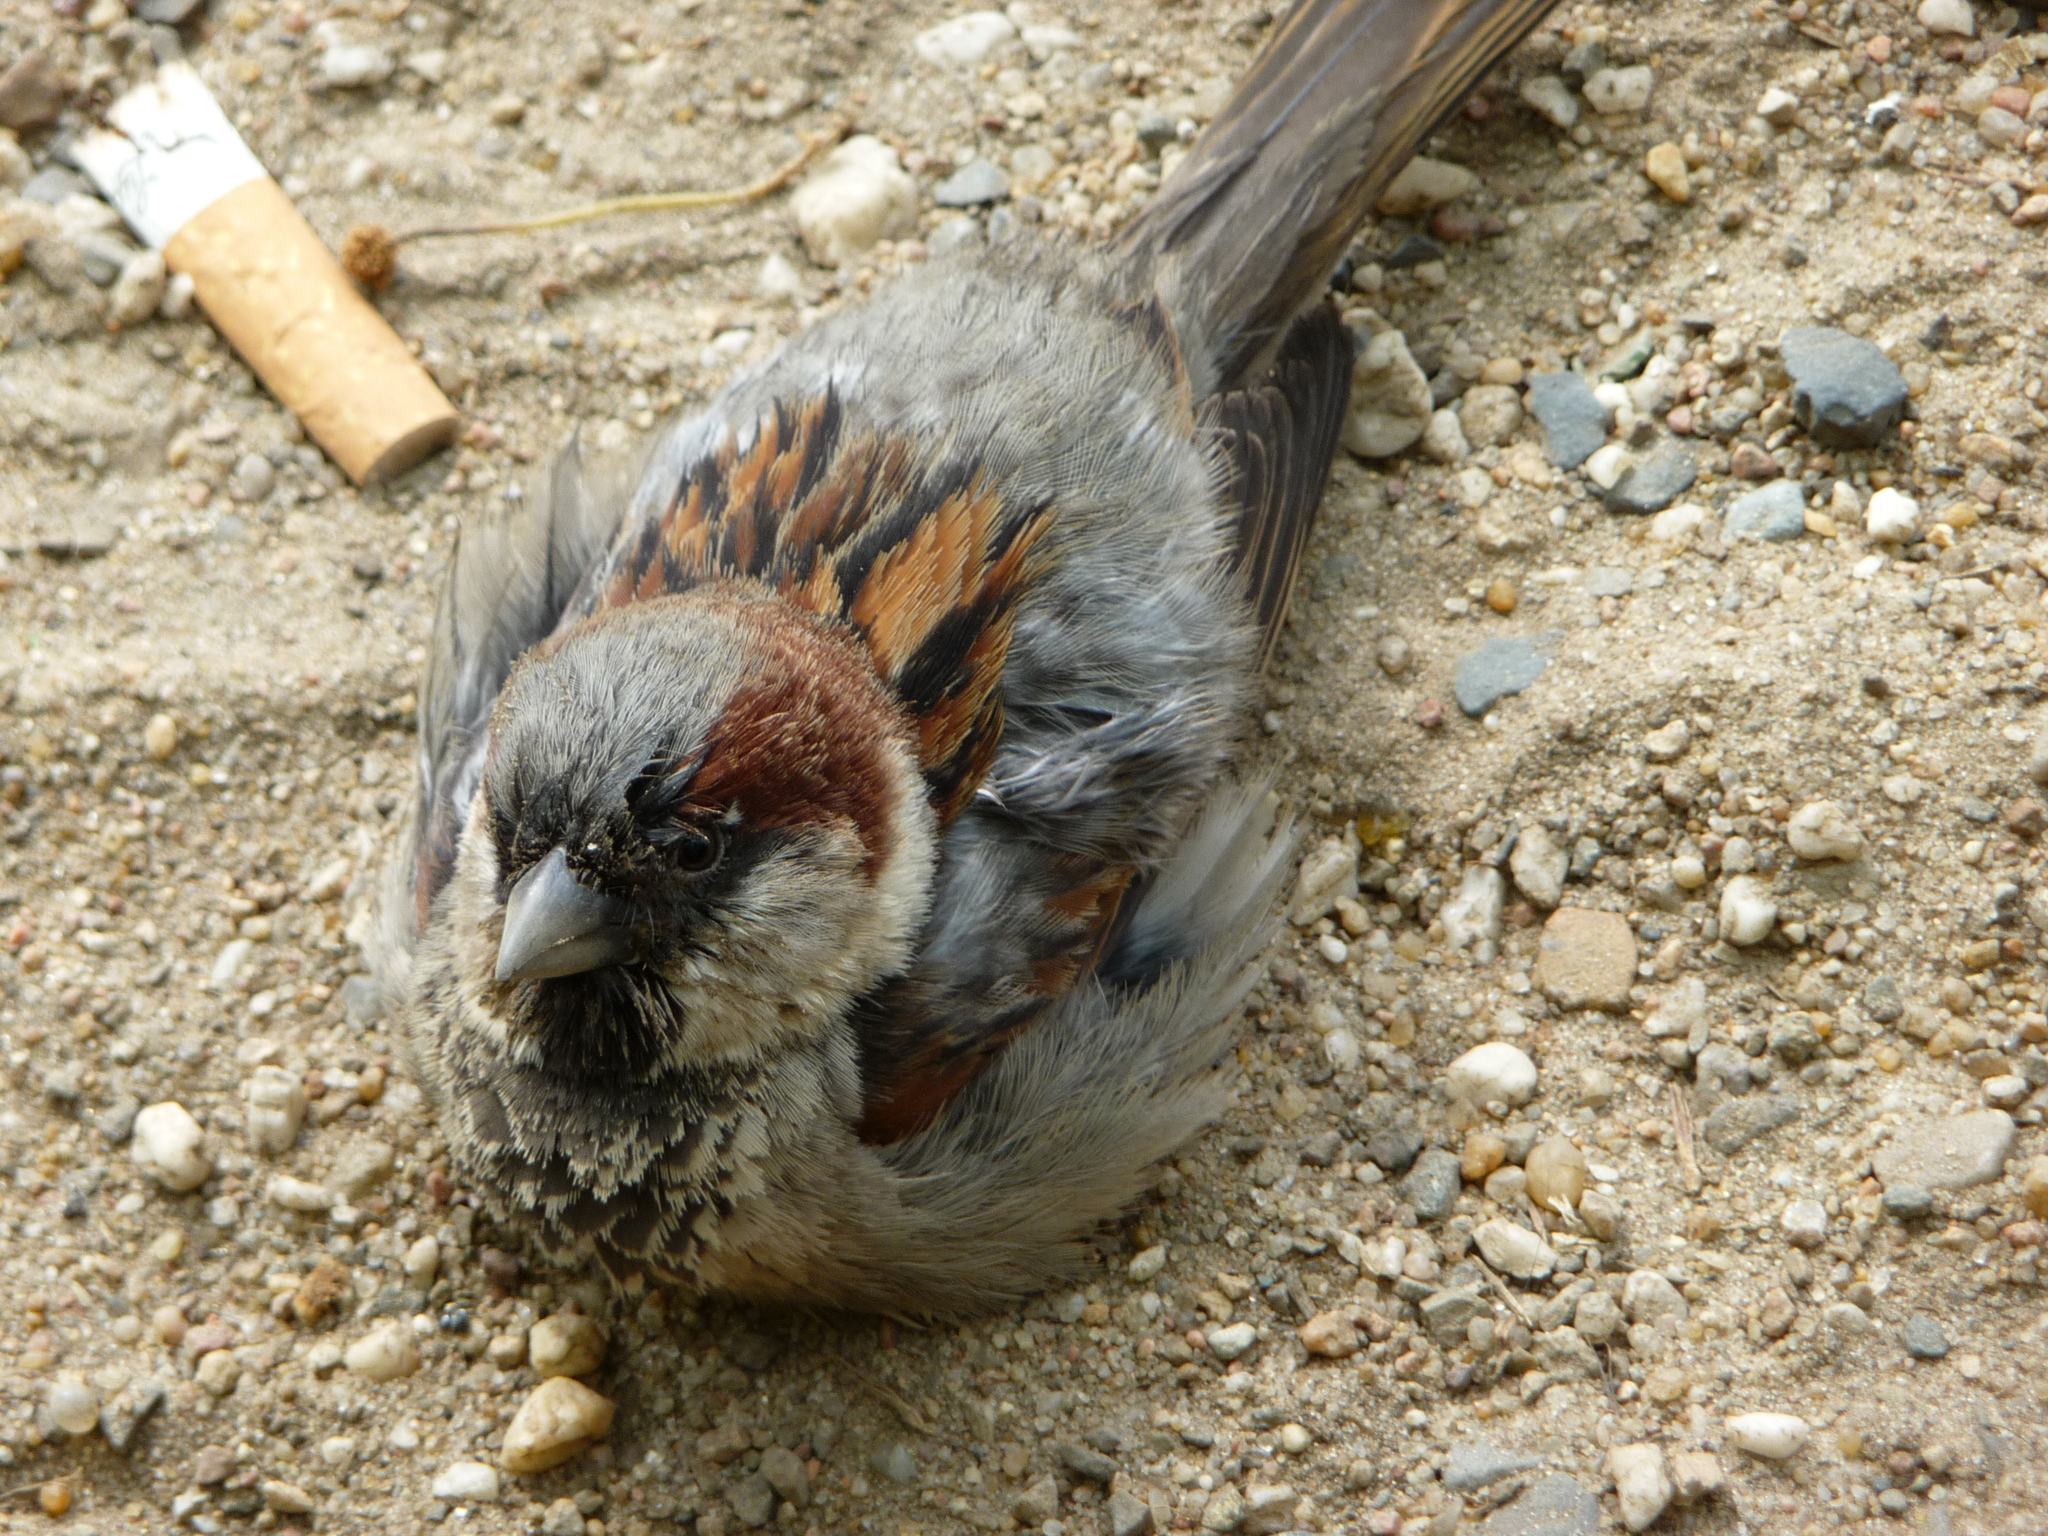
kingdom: Animalia
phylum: Chordata
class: Aves
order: Passeriformes
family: Passeridae
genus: Passer
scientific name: Passer domesticus
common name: House sparrow
